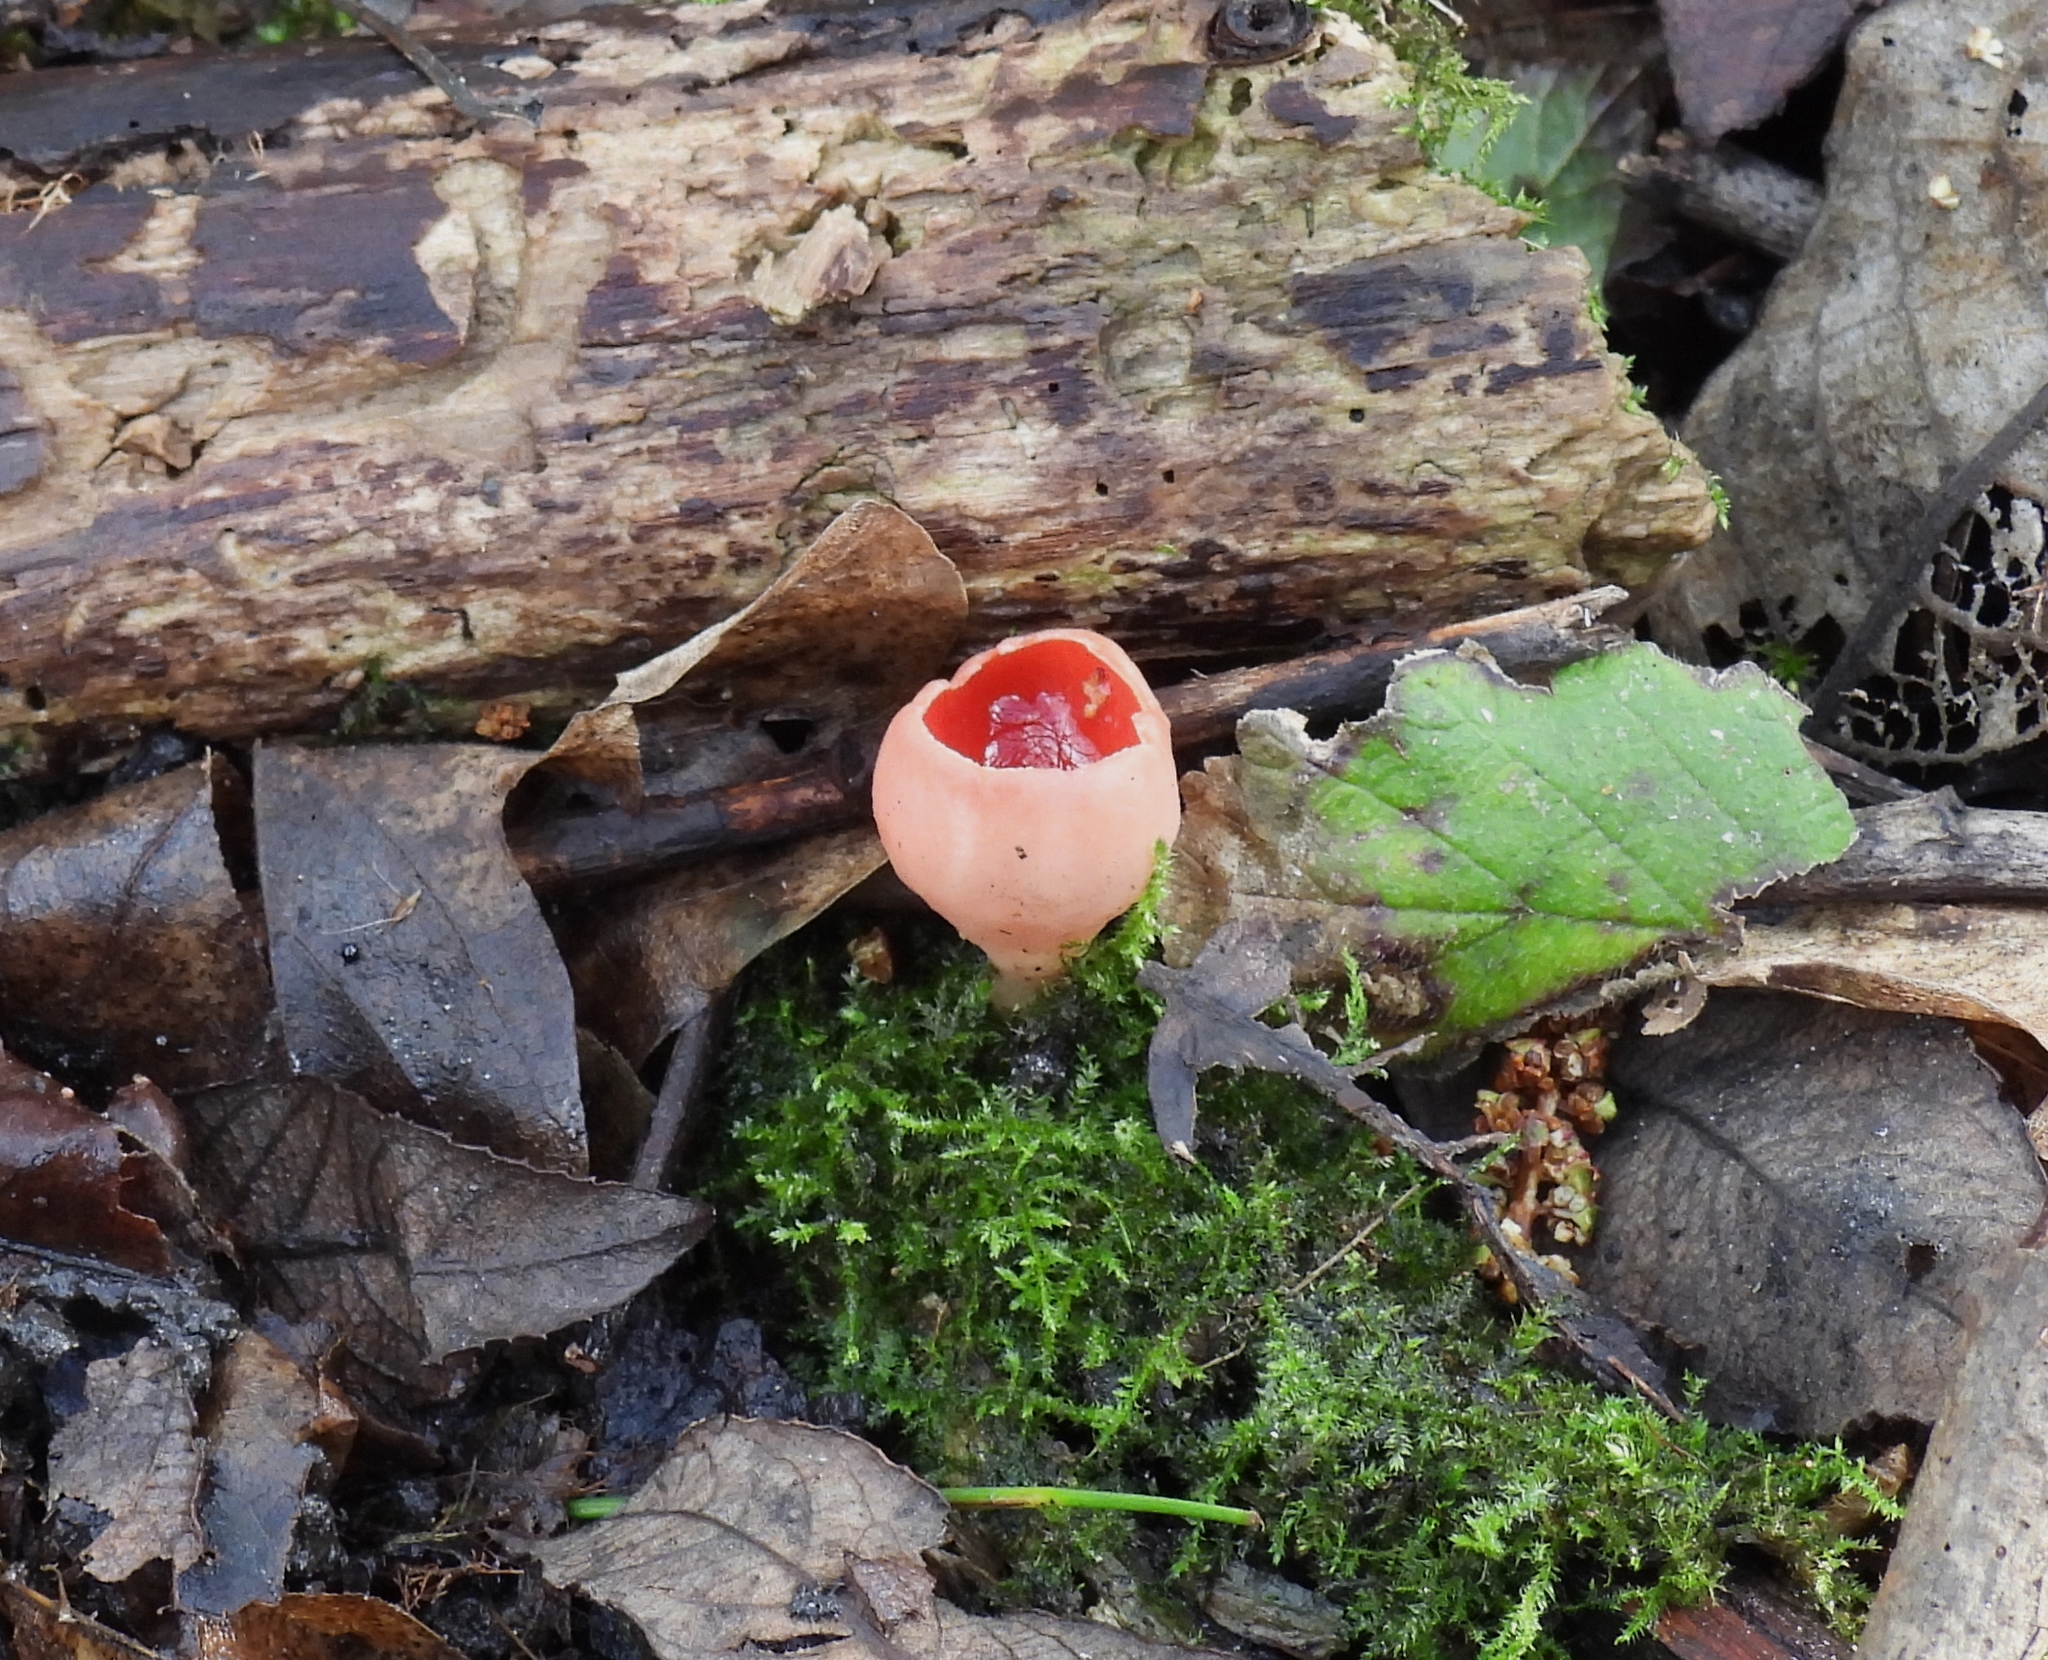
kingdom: Fungi
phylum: Ascomycota
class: Pezizomycetes
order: Pezizales
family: Sarcoscyphaceae
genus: Sarcoscypha
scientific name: Sarcoscypha
